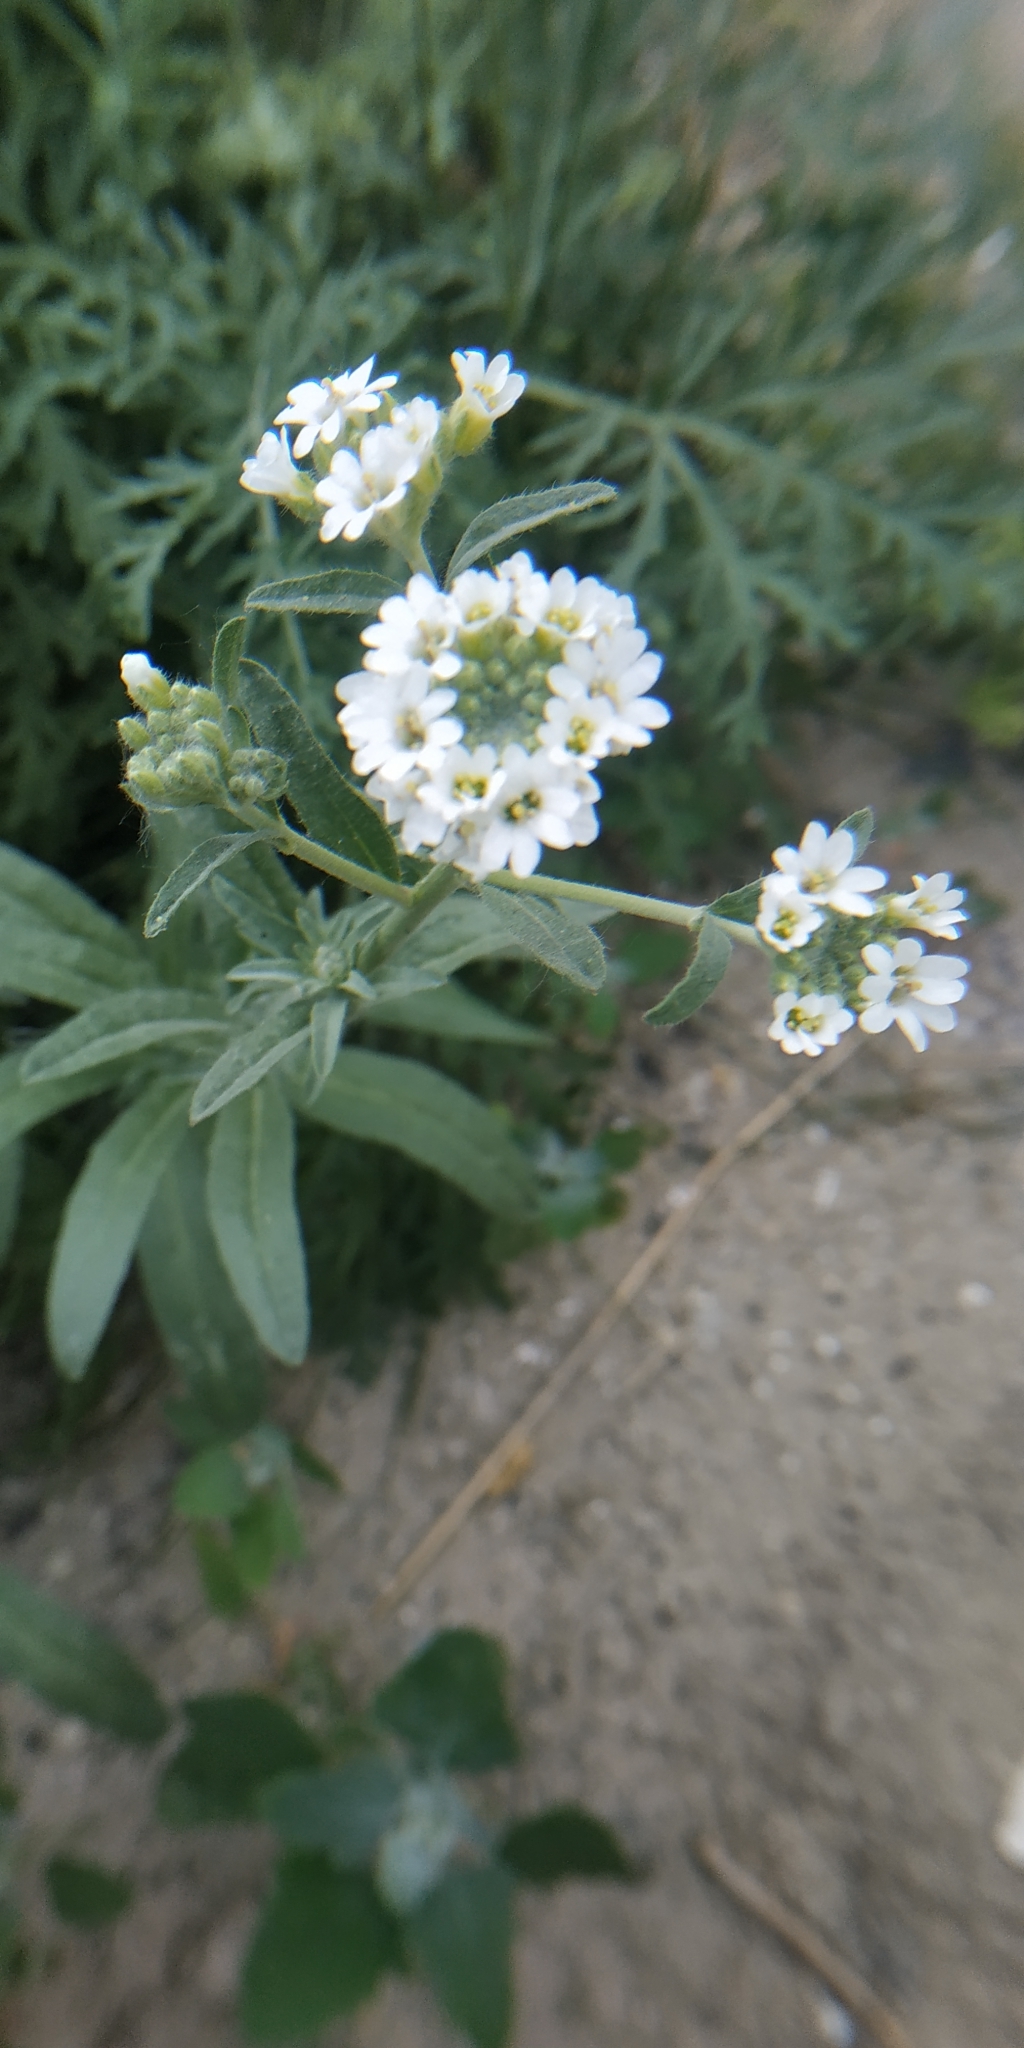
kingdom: Plantae
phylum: Tracheophyta
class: Magnoliopsida
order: Brassicales
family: Brassicaceae
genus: Berteroa
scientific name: Berteroa incana
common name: Hoary alison
